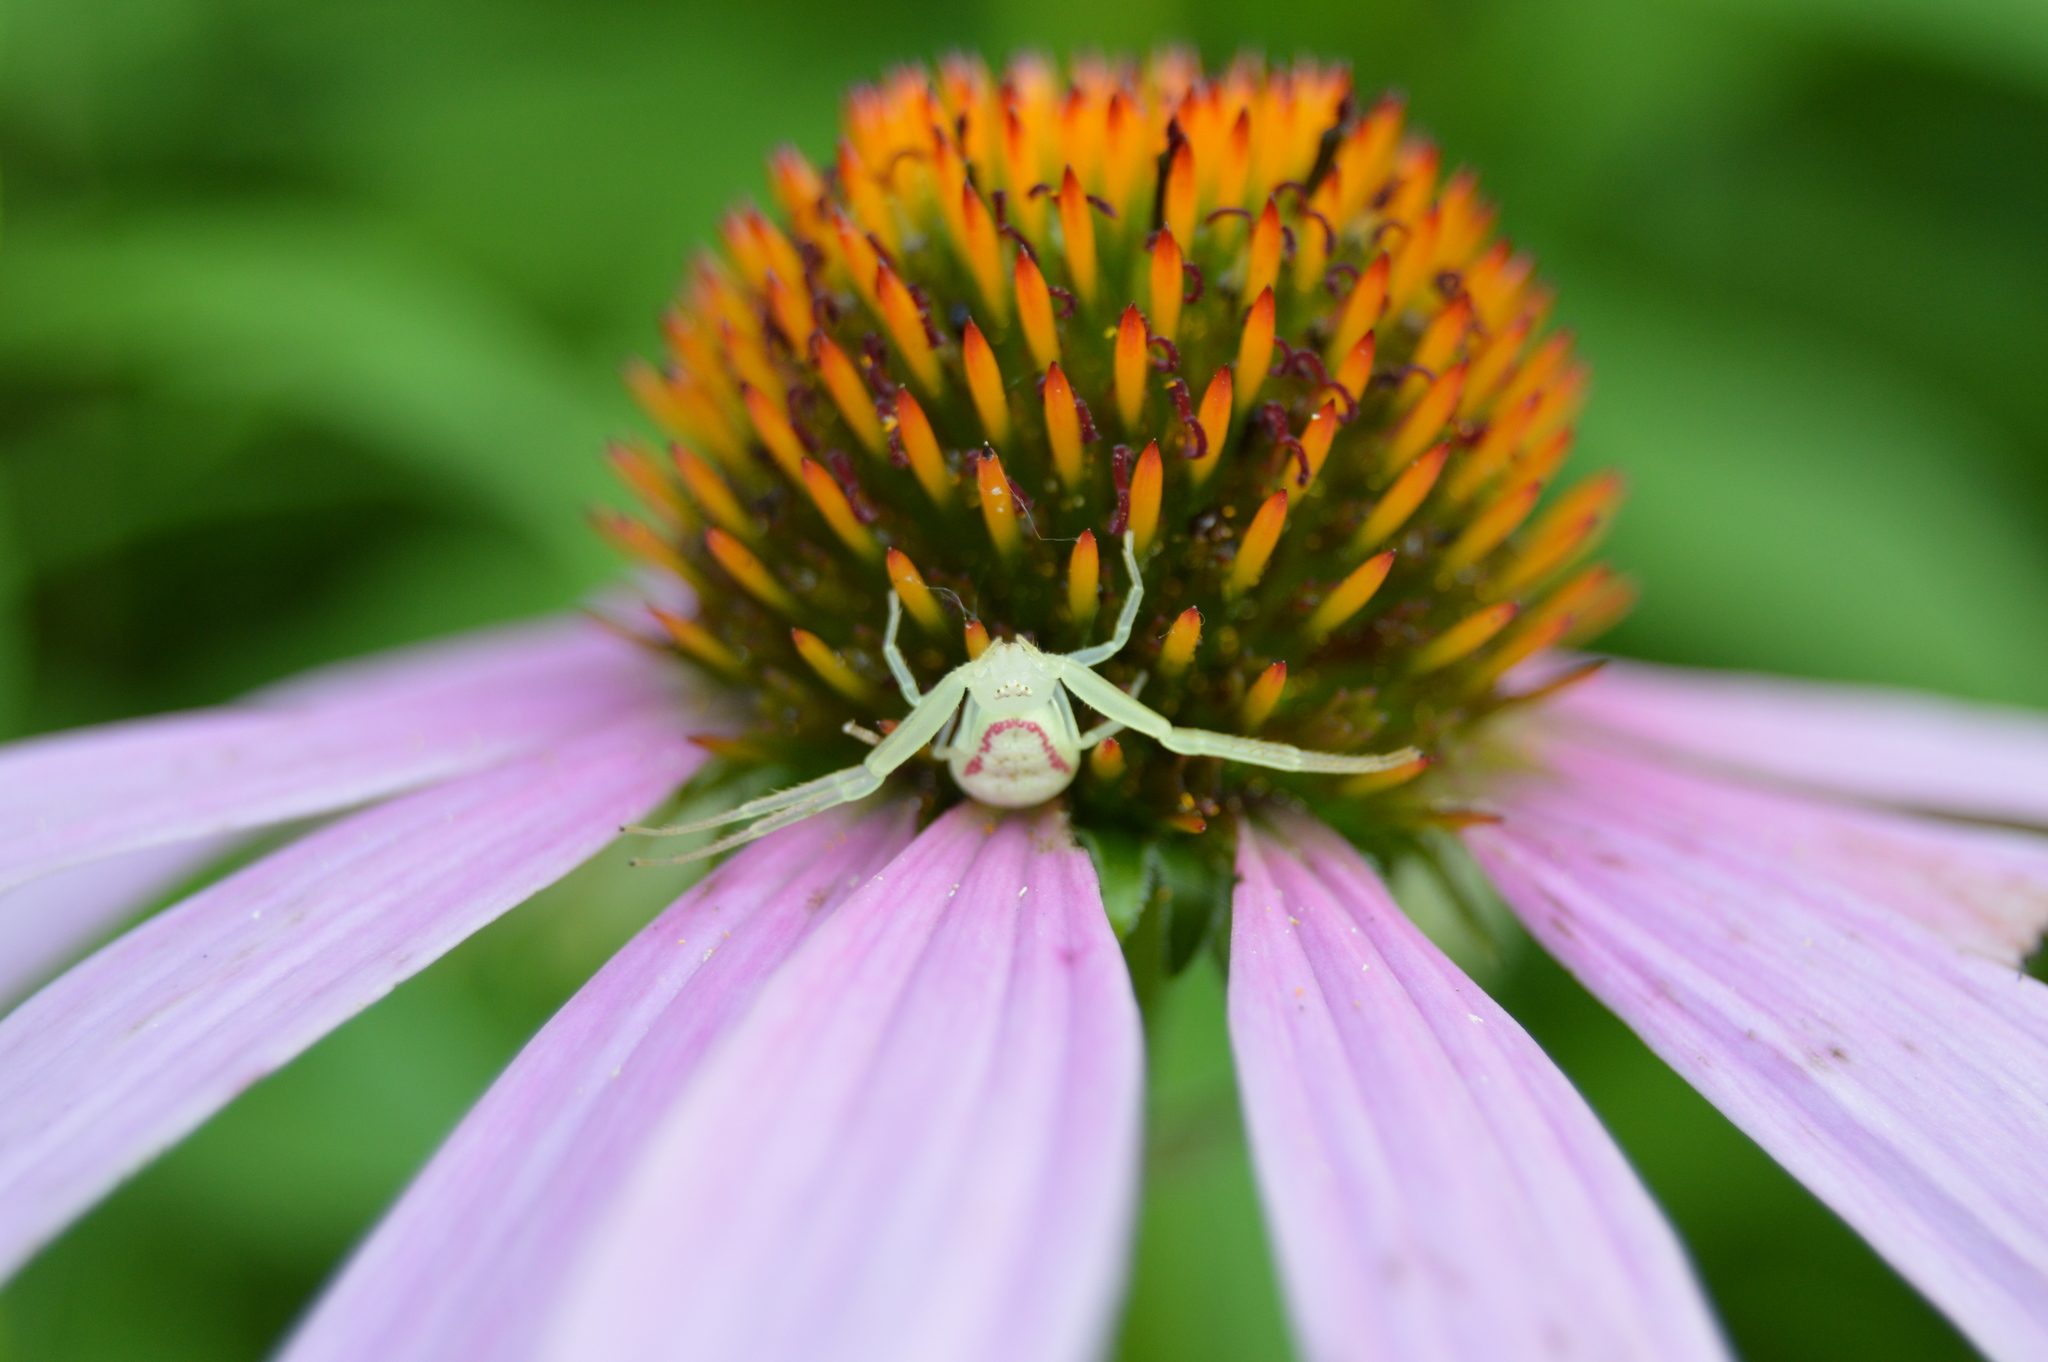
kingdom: Animalia
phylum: Arthropoda
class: Arachnida
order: Araneae
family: Thomisidae
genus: Misumessus
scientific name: Misumessus oblongus
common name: American green crab spider
